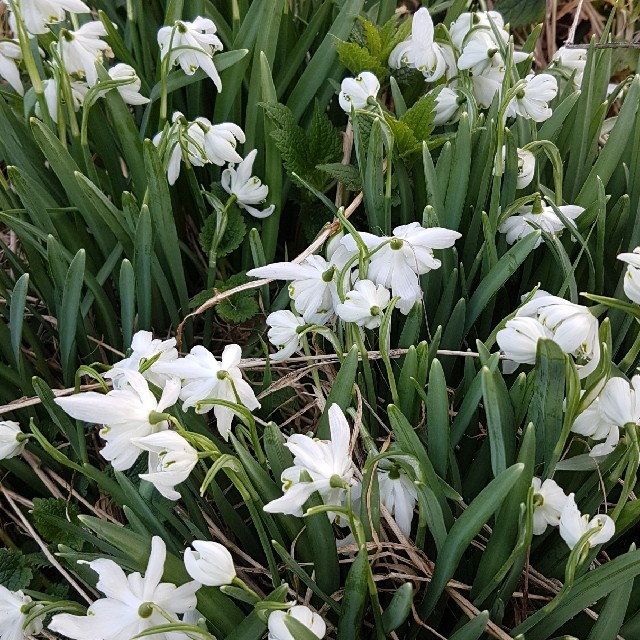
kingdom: Plantae
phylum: Tracheophyta
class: Liliopsida
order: Asparagales
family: Amaryllidaceae
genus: Galanthus
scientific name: Galanthus nivalis
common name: Snowdrop
